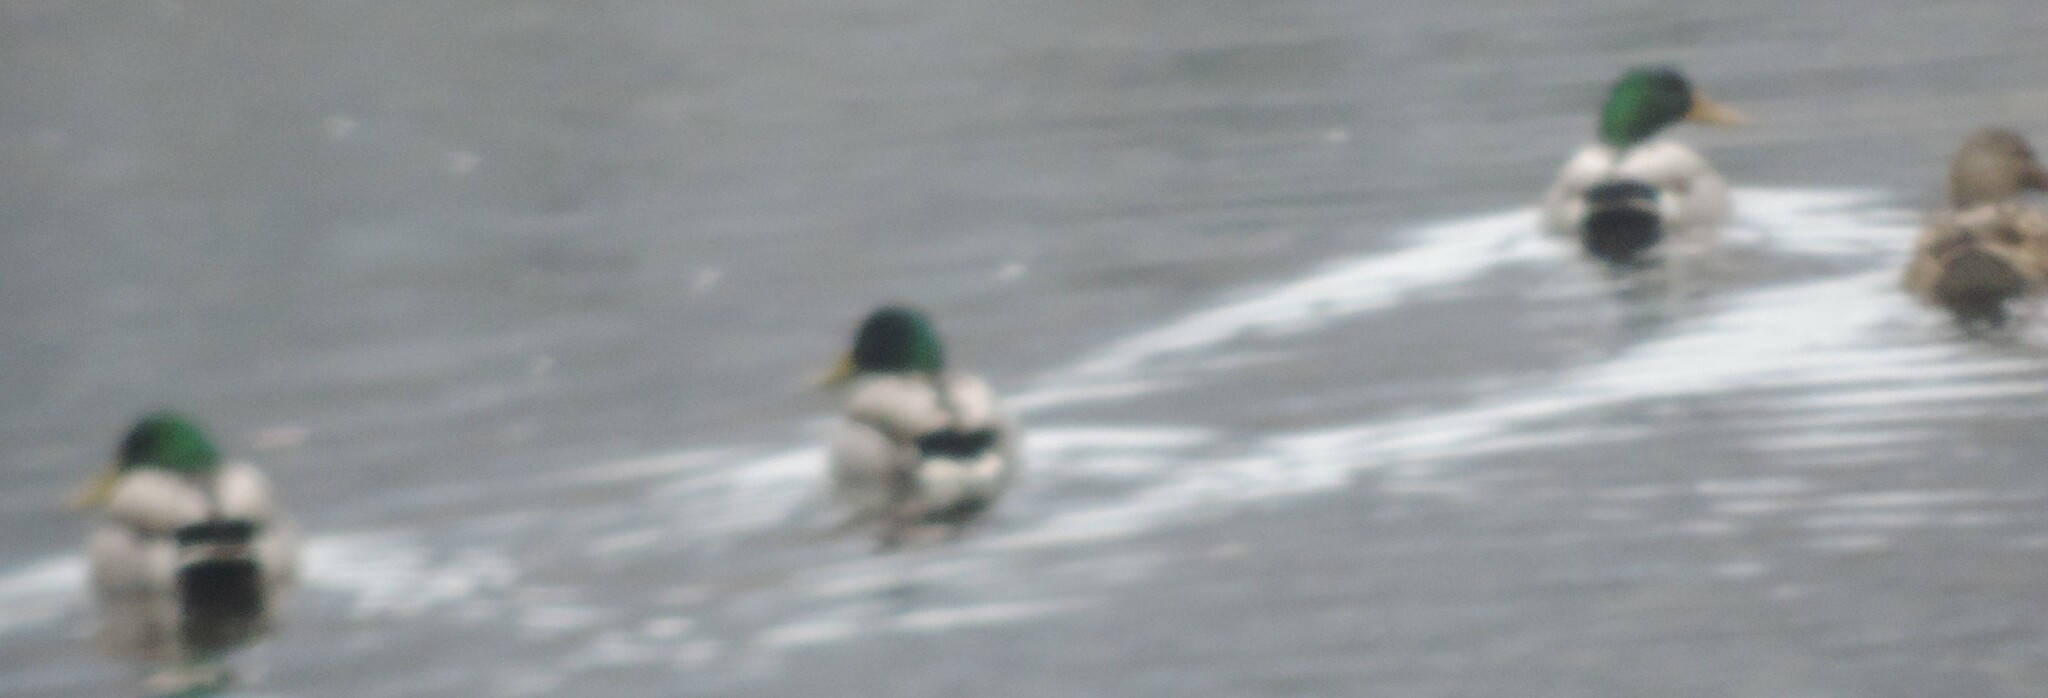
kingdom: Animalia
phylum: Chordata
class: Aves
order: Anseriformes
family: Anatidae
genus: Anas
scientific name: Anas platyrhynchos
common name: Mallard
